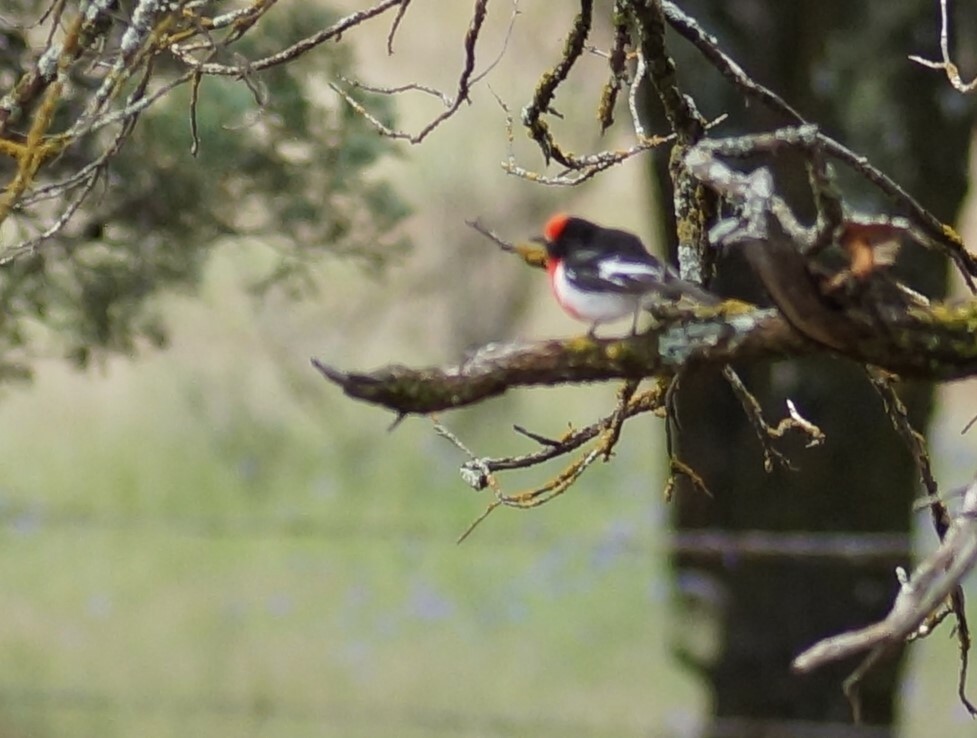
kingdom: Animalia
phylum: Chordata
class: Aves
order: Passeriformes
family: Petroicidae
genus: Petroica
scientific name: Petroica goodenovii
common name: Red-capped robin
